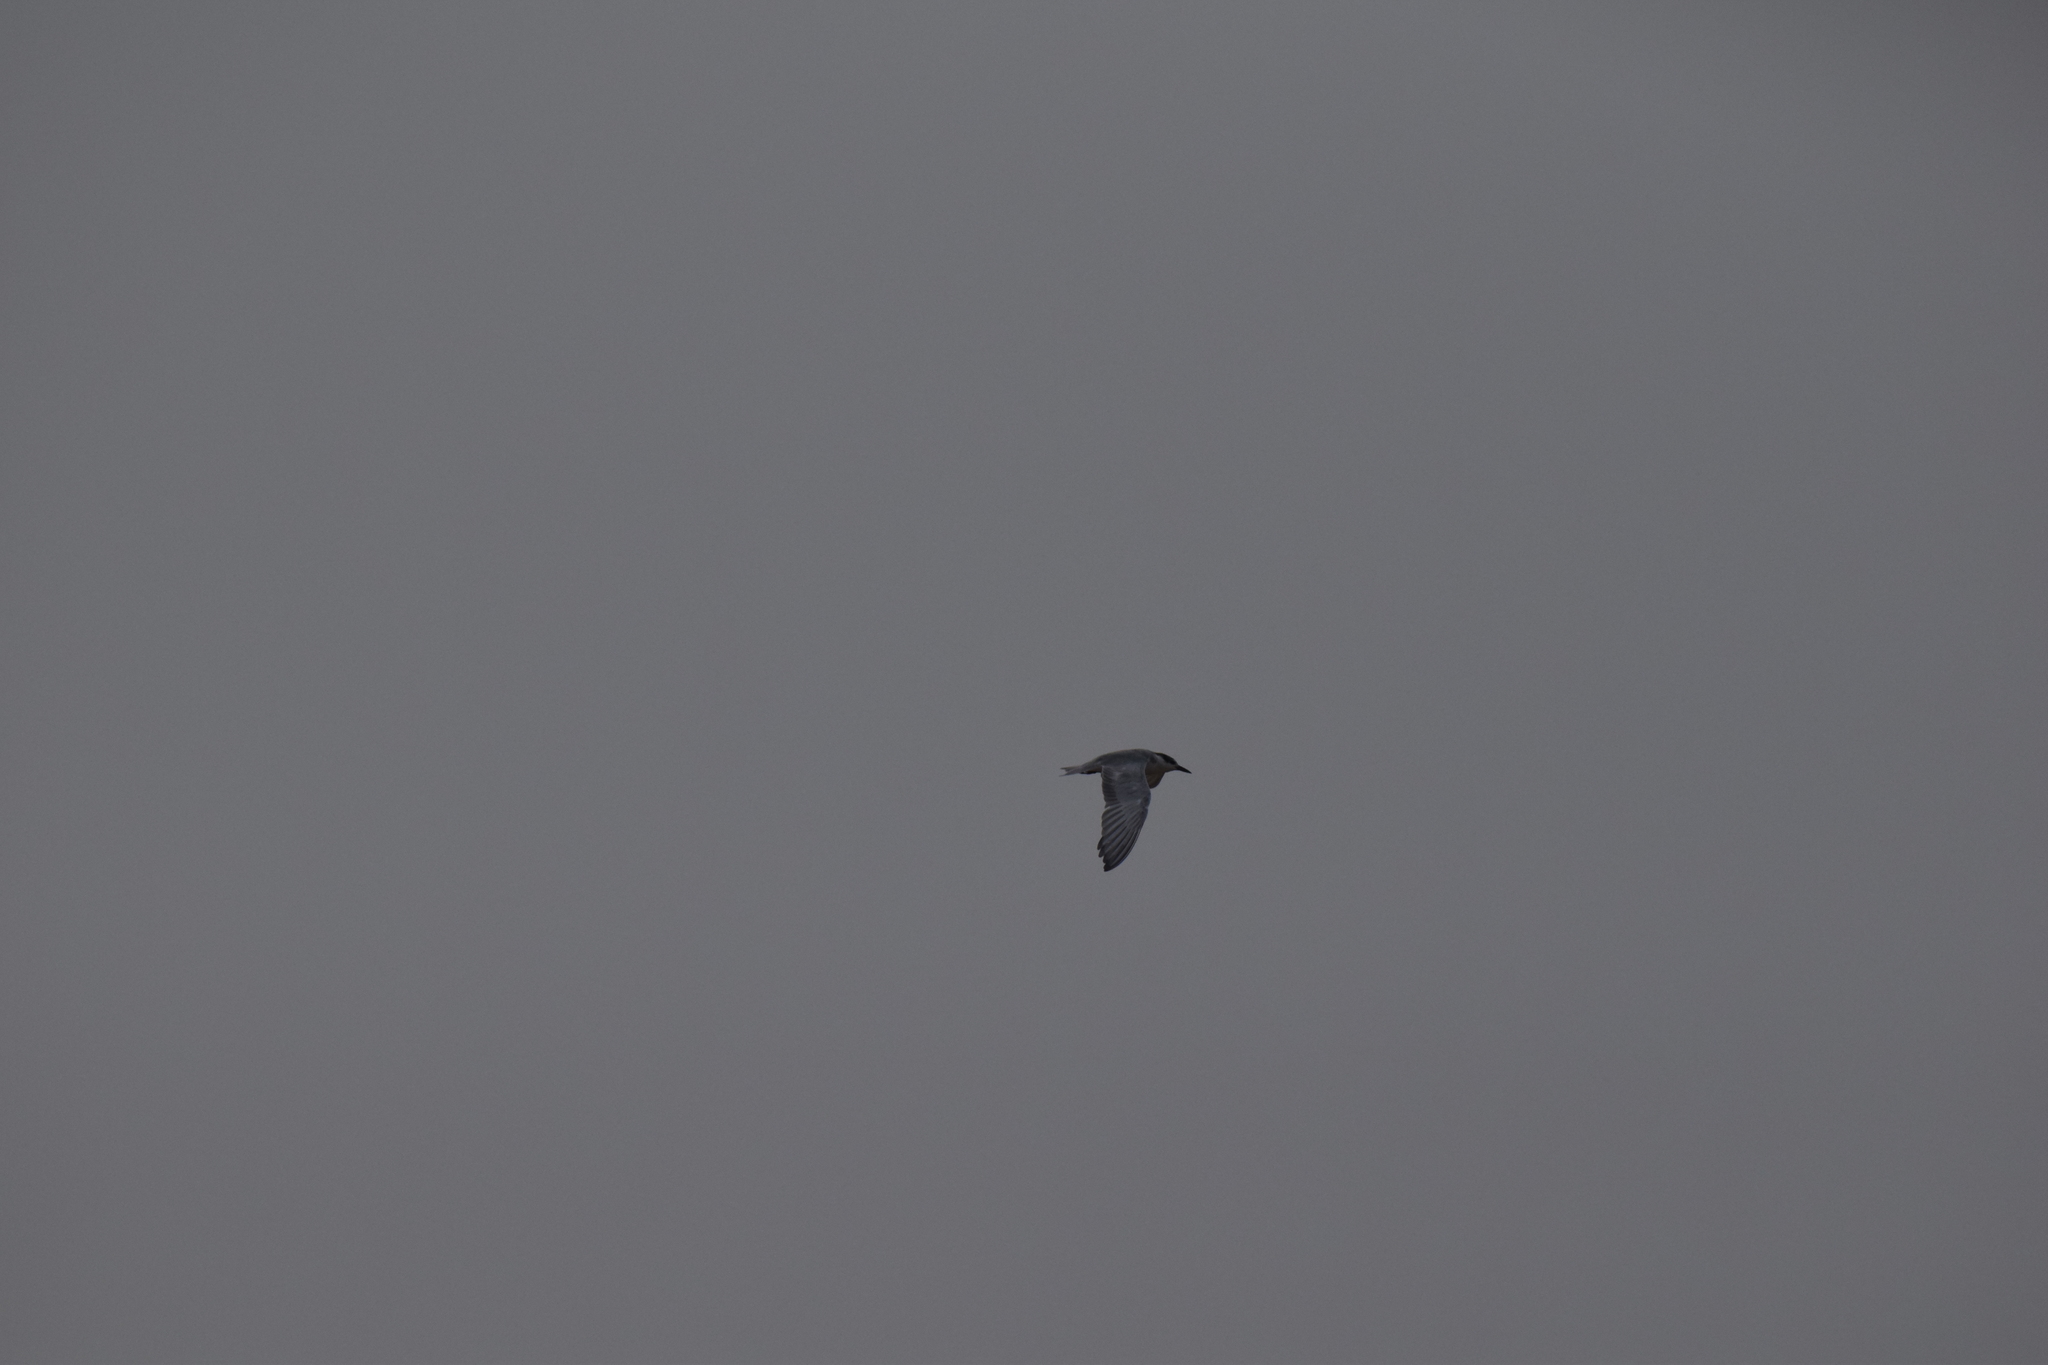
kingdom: Animalia
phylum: Chordata
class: Aves
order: Charadriiformes
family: Laridae
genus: Chlidonias
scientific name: Chlidonias hybrida
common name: Whiskered tern
